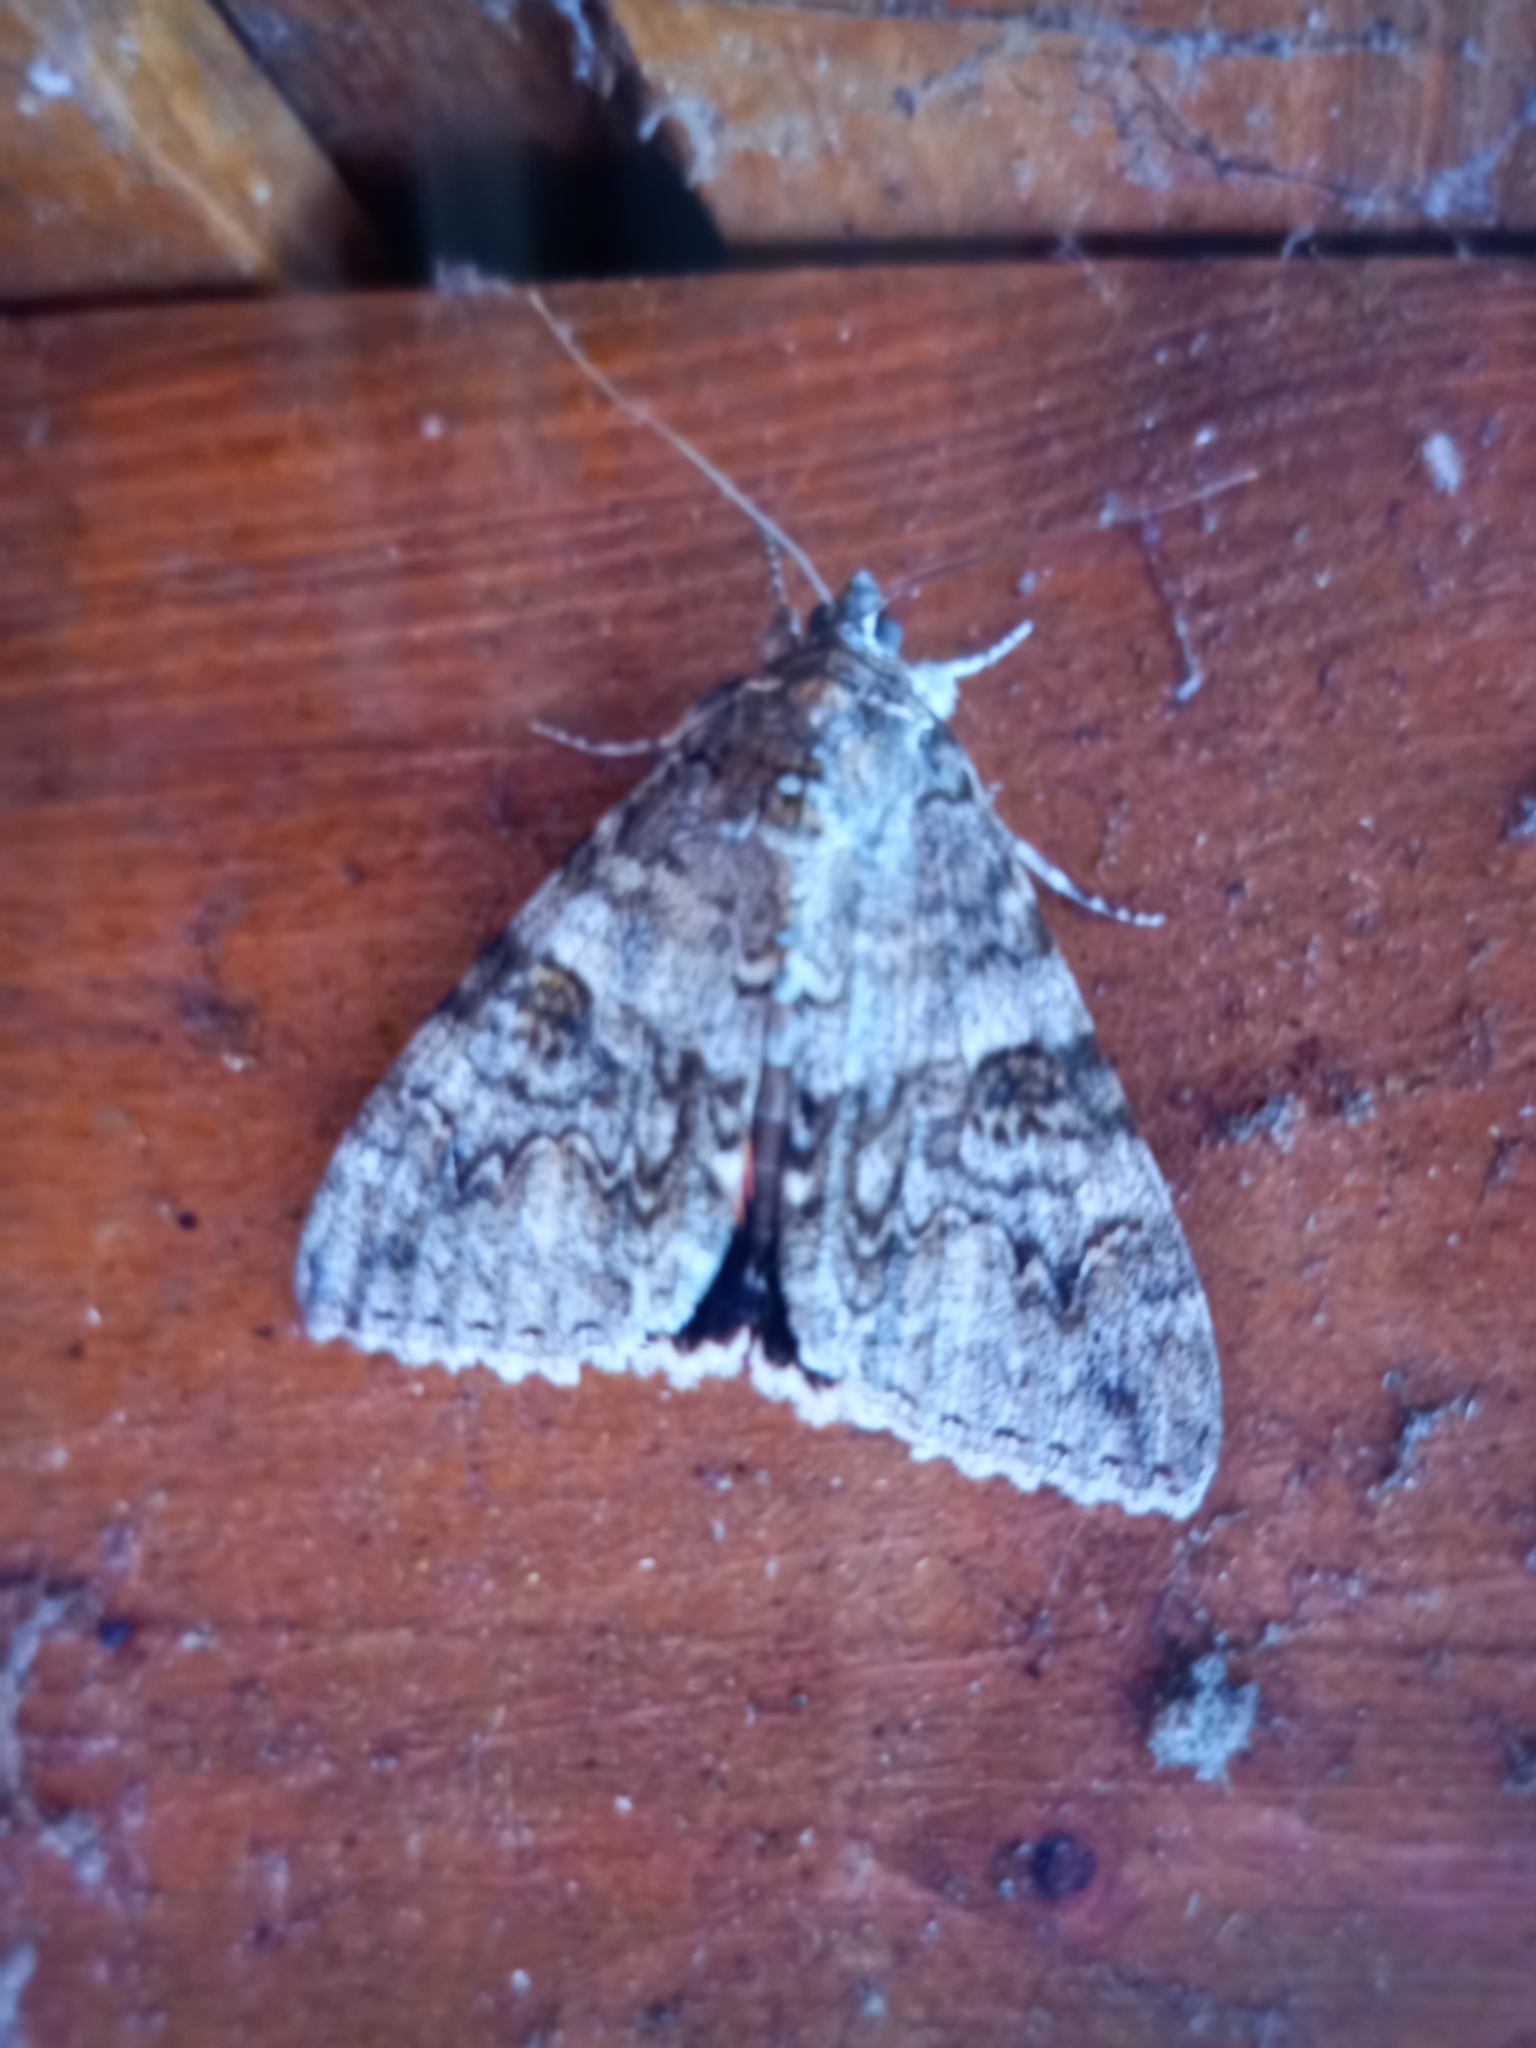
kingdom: Animalia
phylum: Arthropoda
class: Insecta
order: Lepidoptera
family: Erebidae
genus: Catocala
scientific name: Catocala nupta
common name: Red underwing
